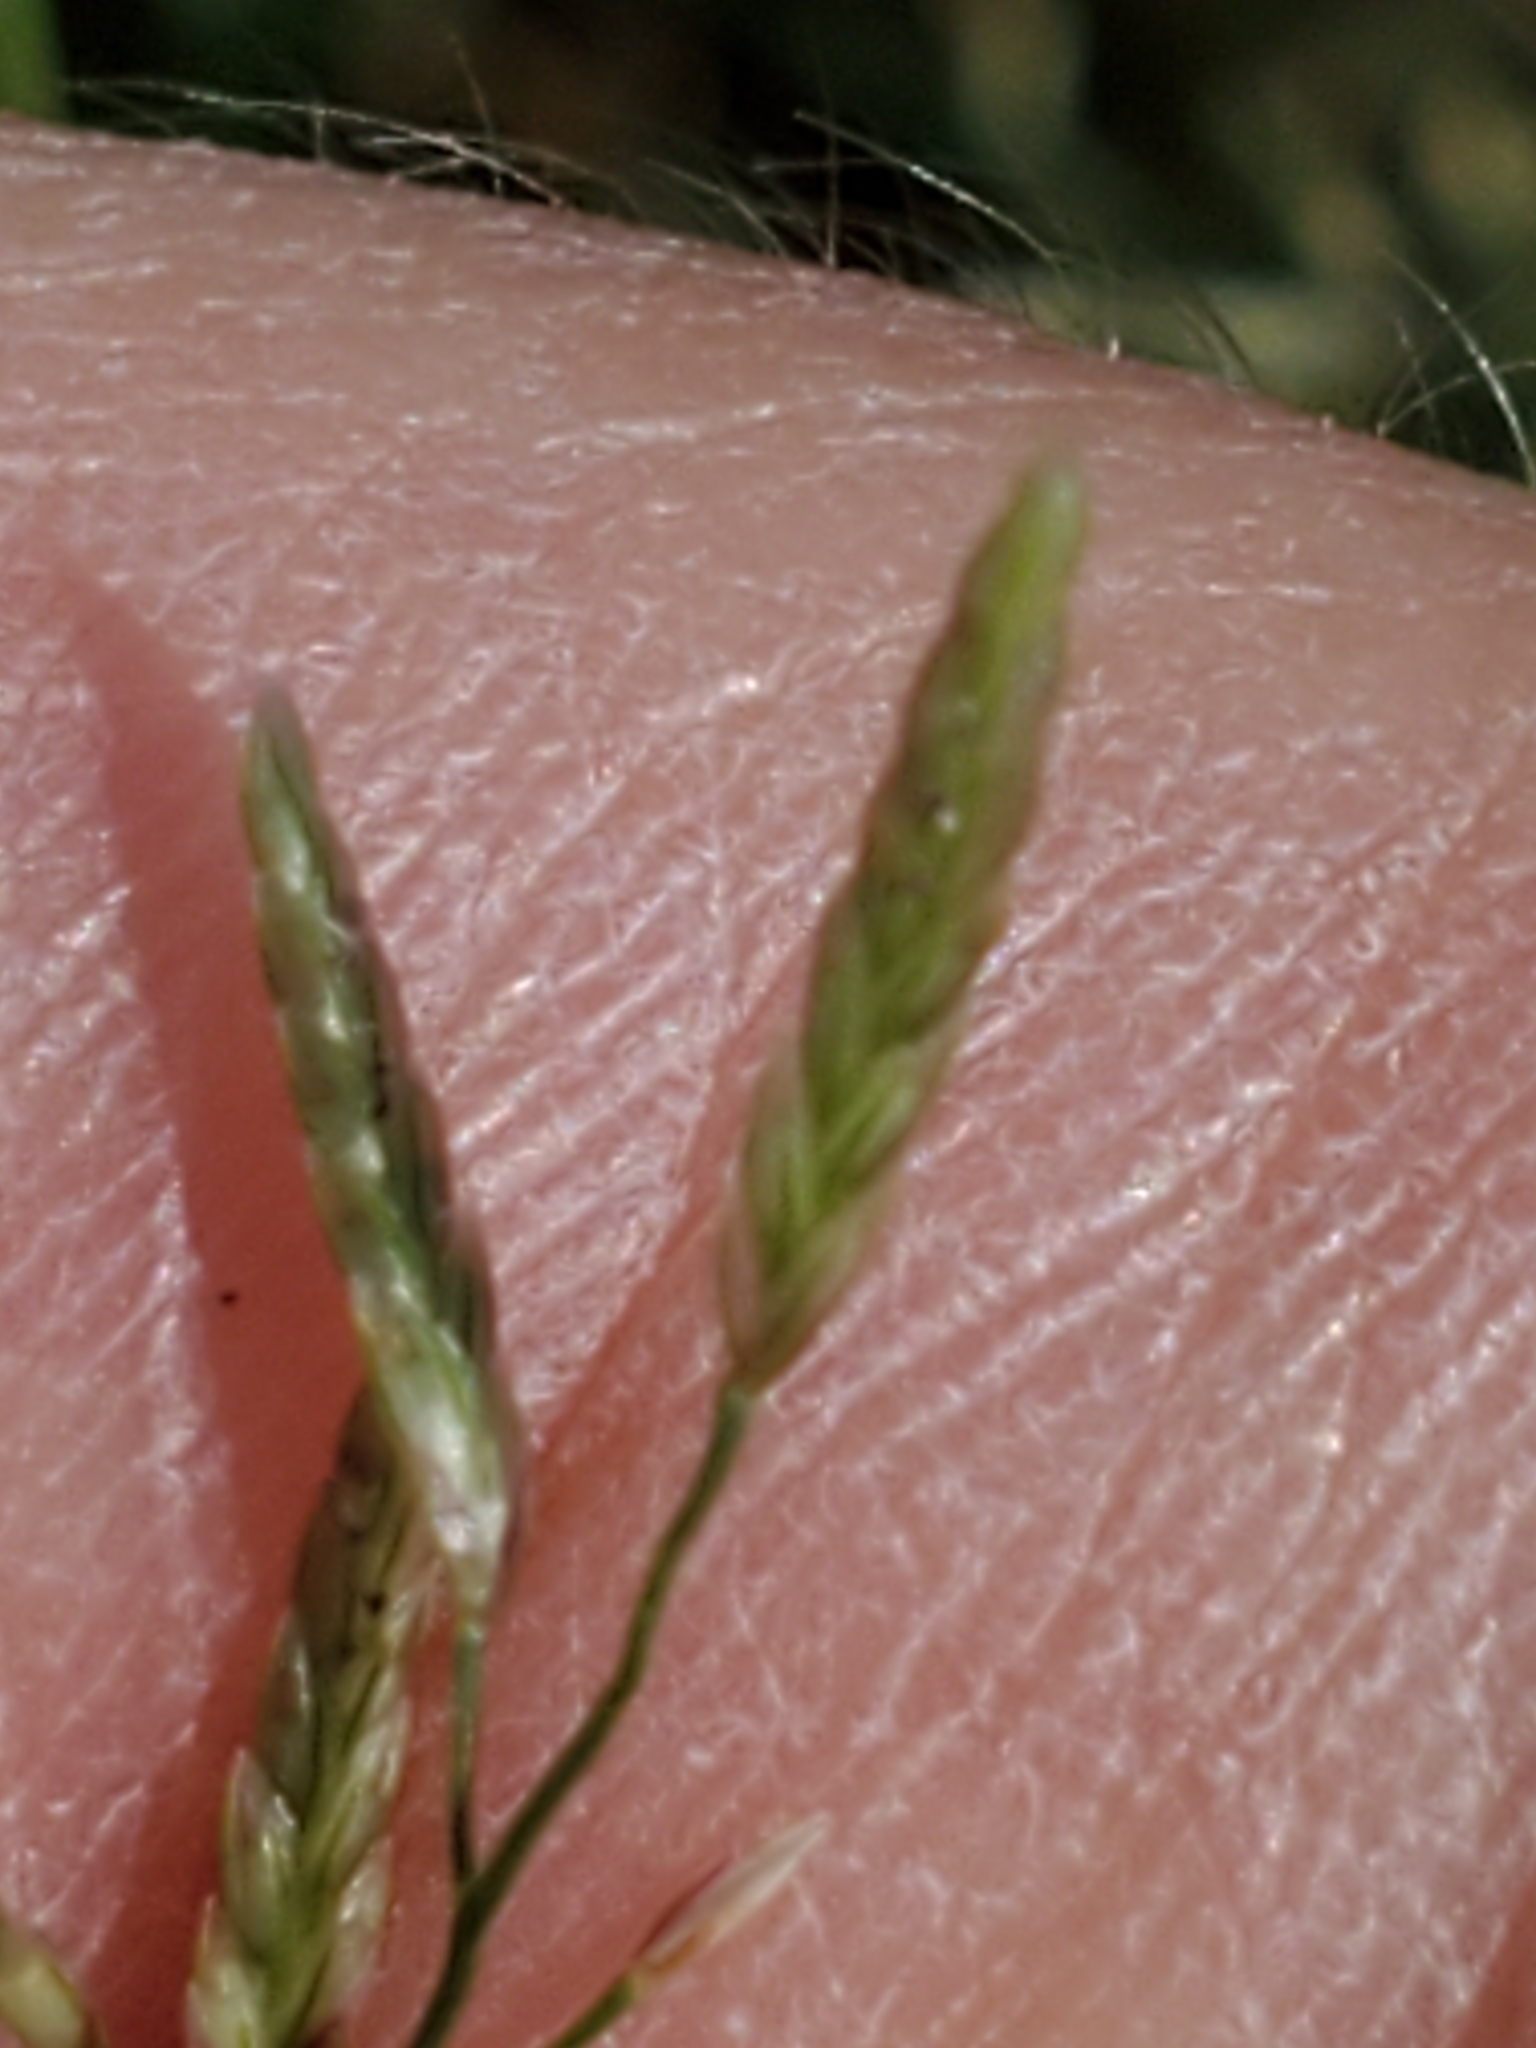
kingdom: Plantae
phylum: Tracheophyta
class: Liliopsida
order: Poales
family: Poaceae
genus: Eragrostis
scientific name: Eragrostis barrelieri
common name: Mediterranean lovegrass
